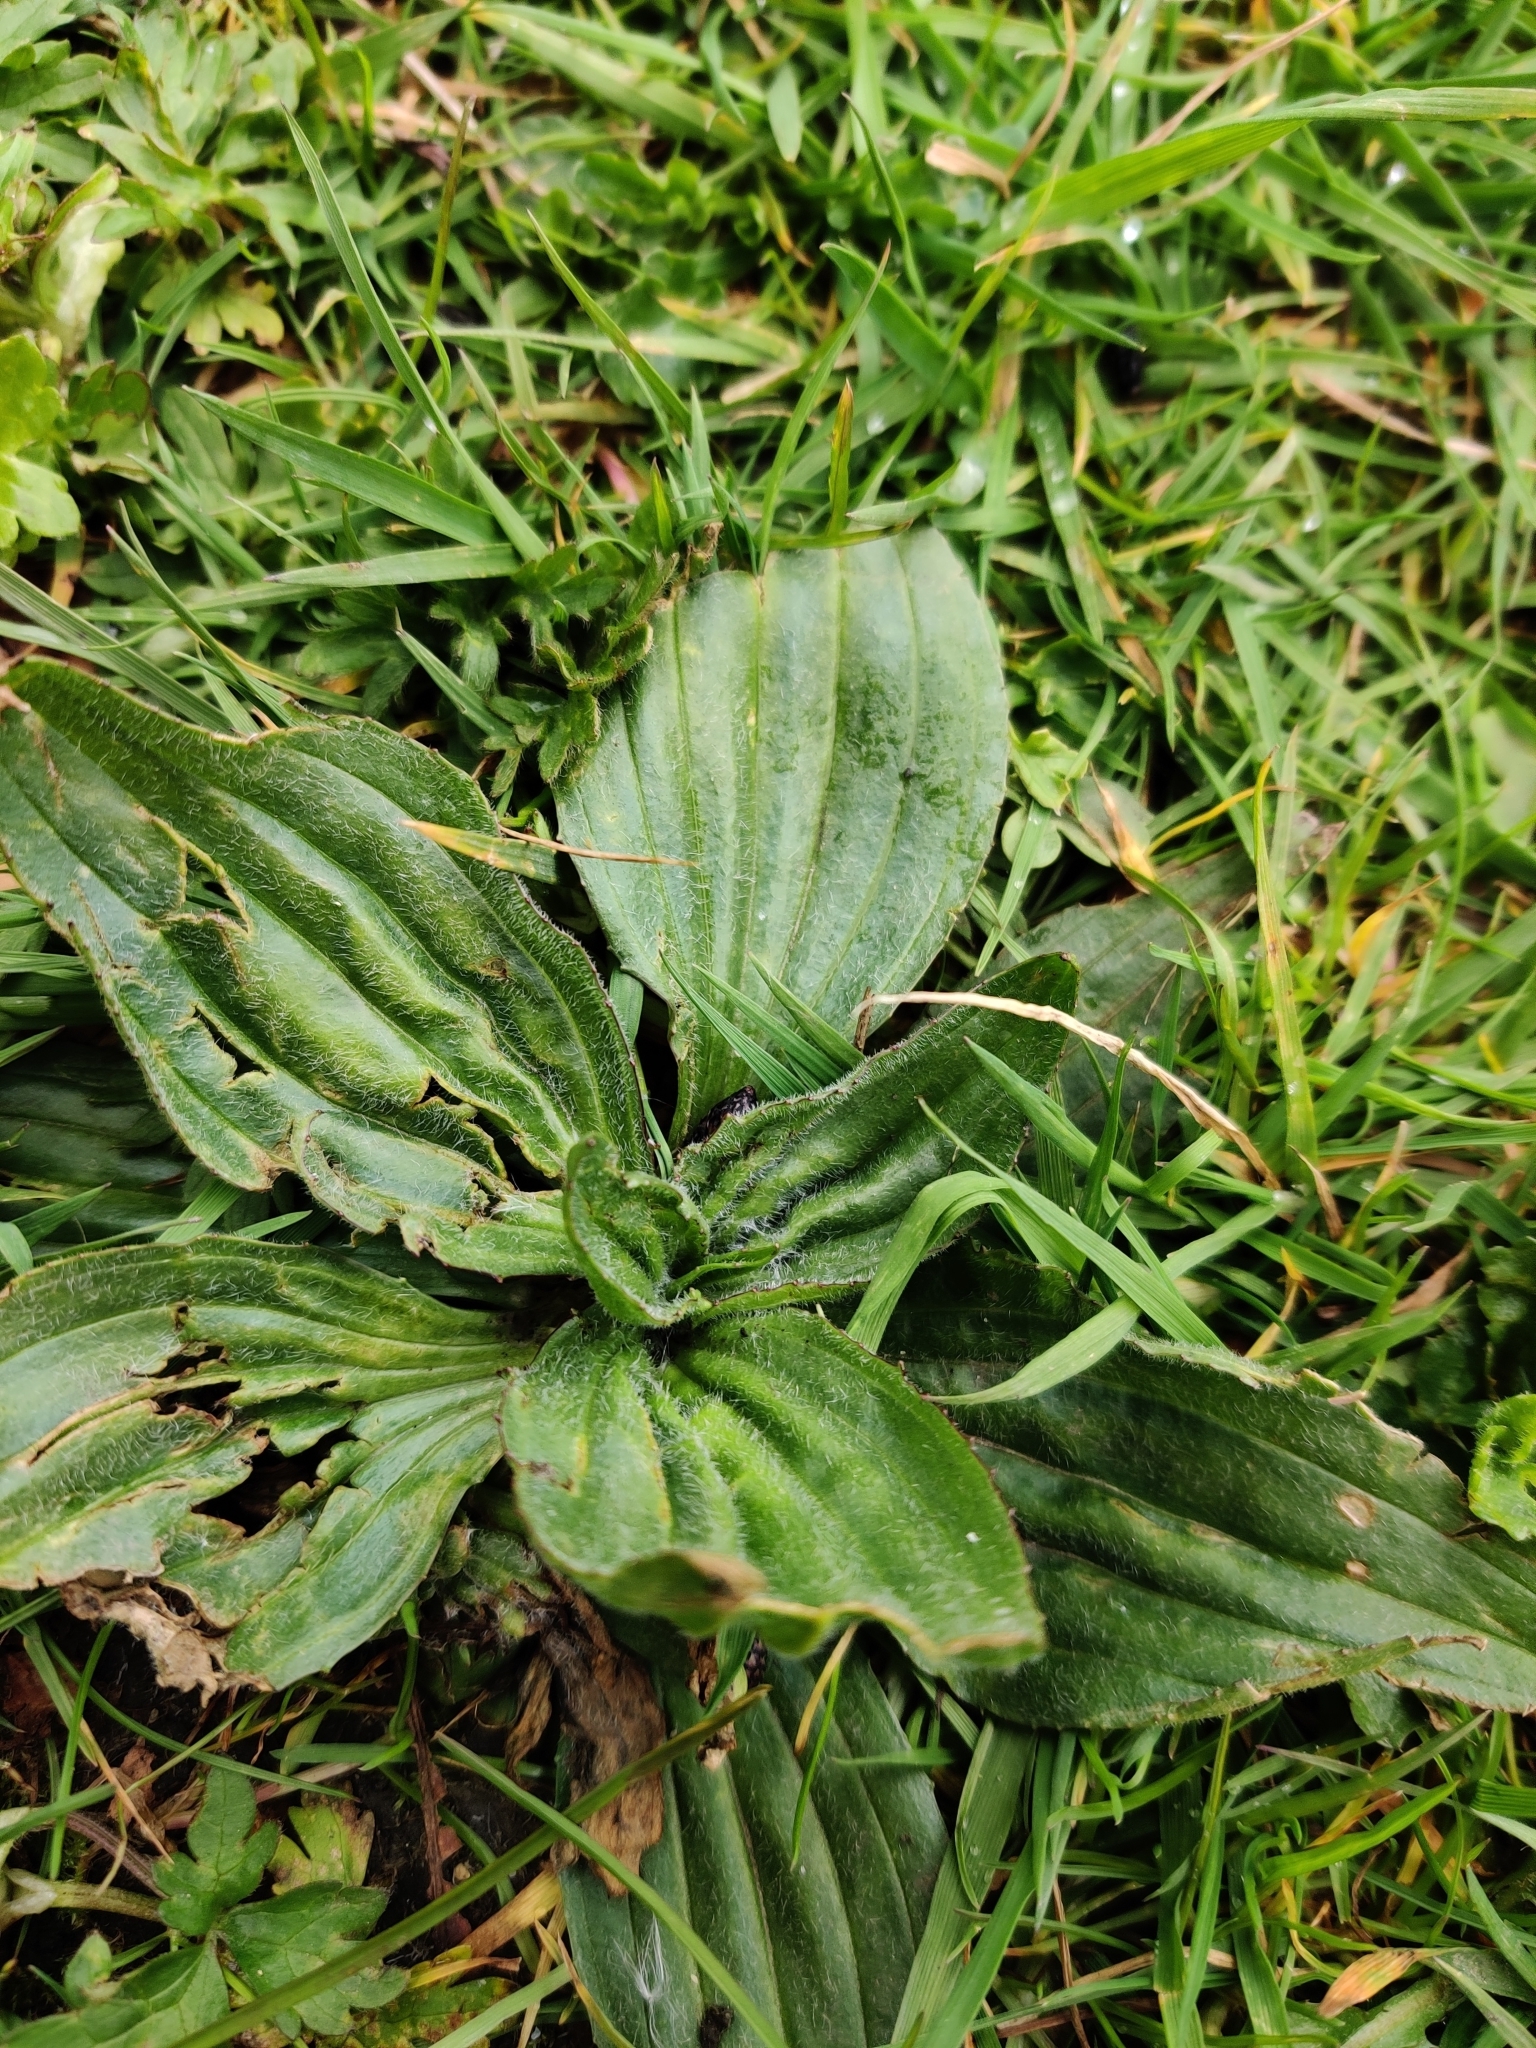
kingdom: Plantae
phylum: Tracheophyta
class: Magnoliopsida
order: Lamiales
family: Plantaginaceae
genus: Plantago
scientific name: Plantago major
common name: Common plantain
